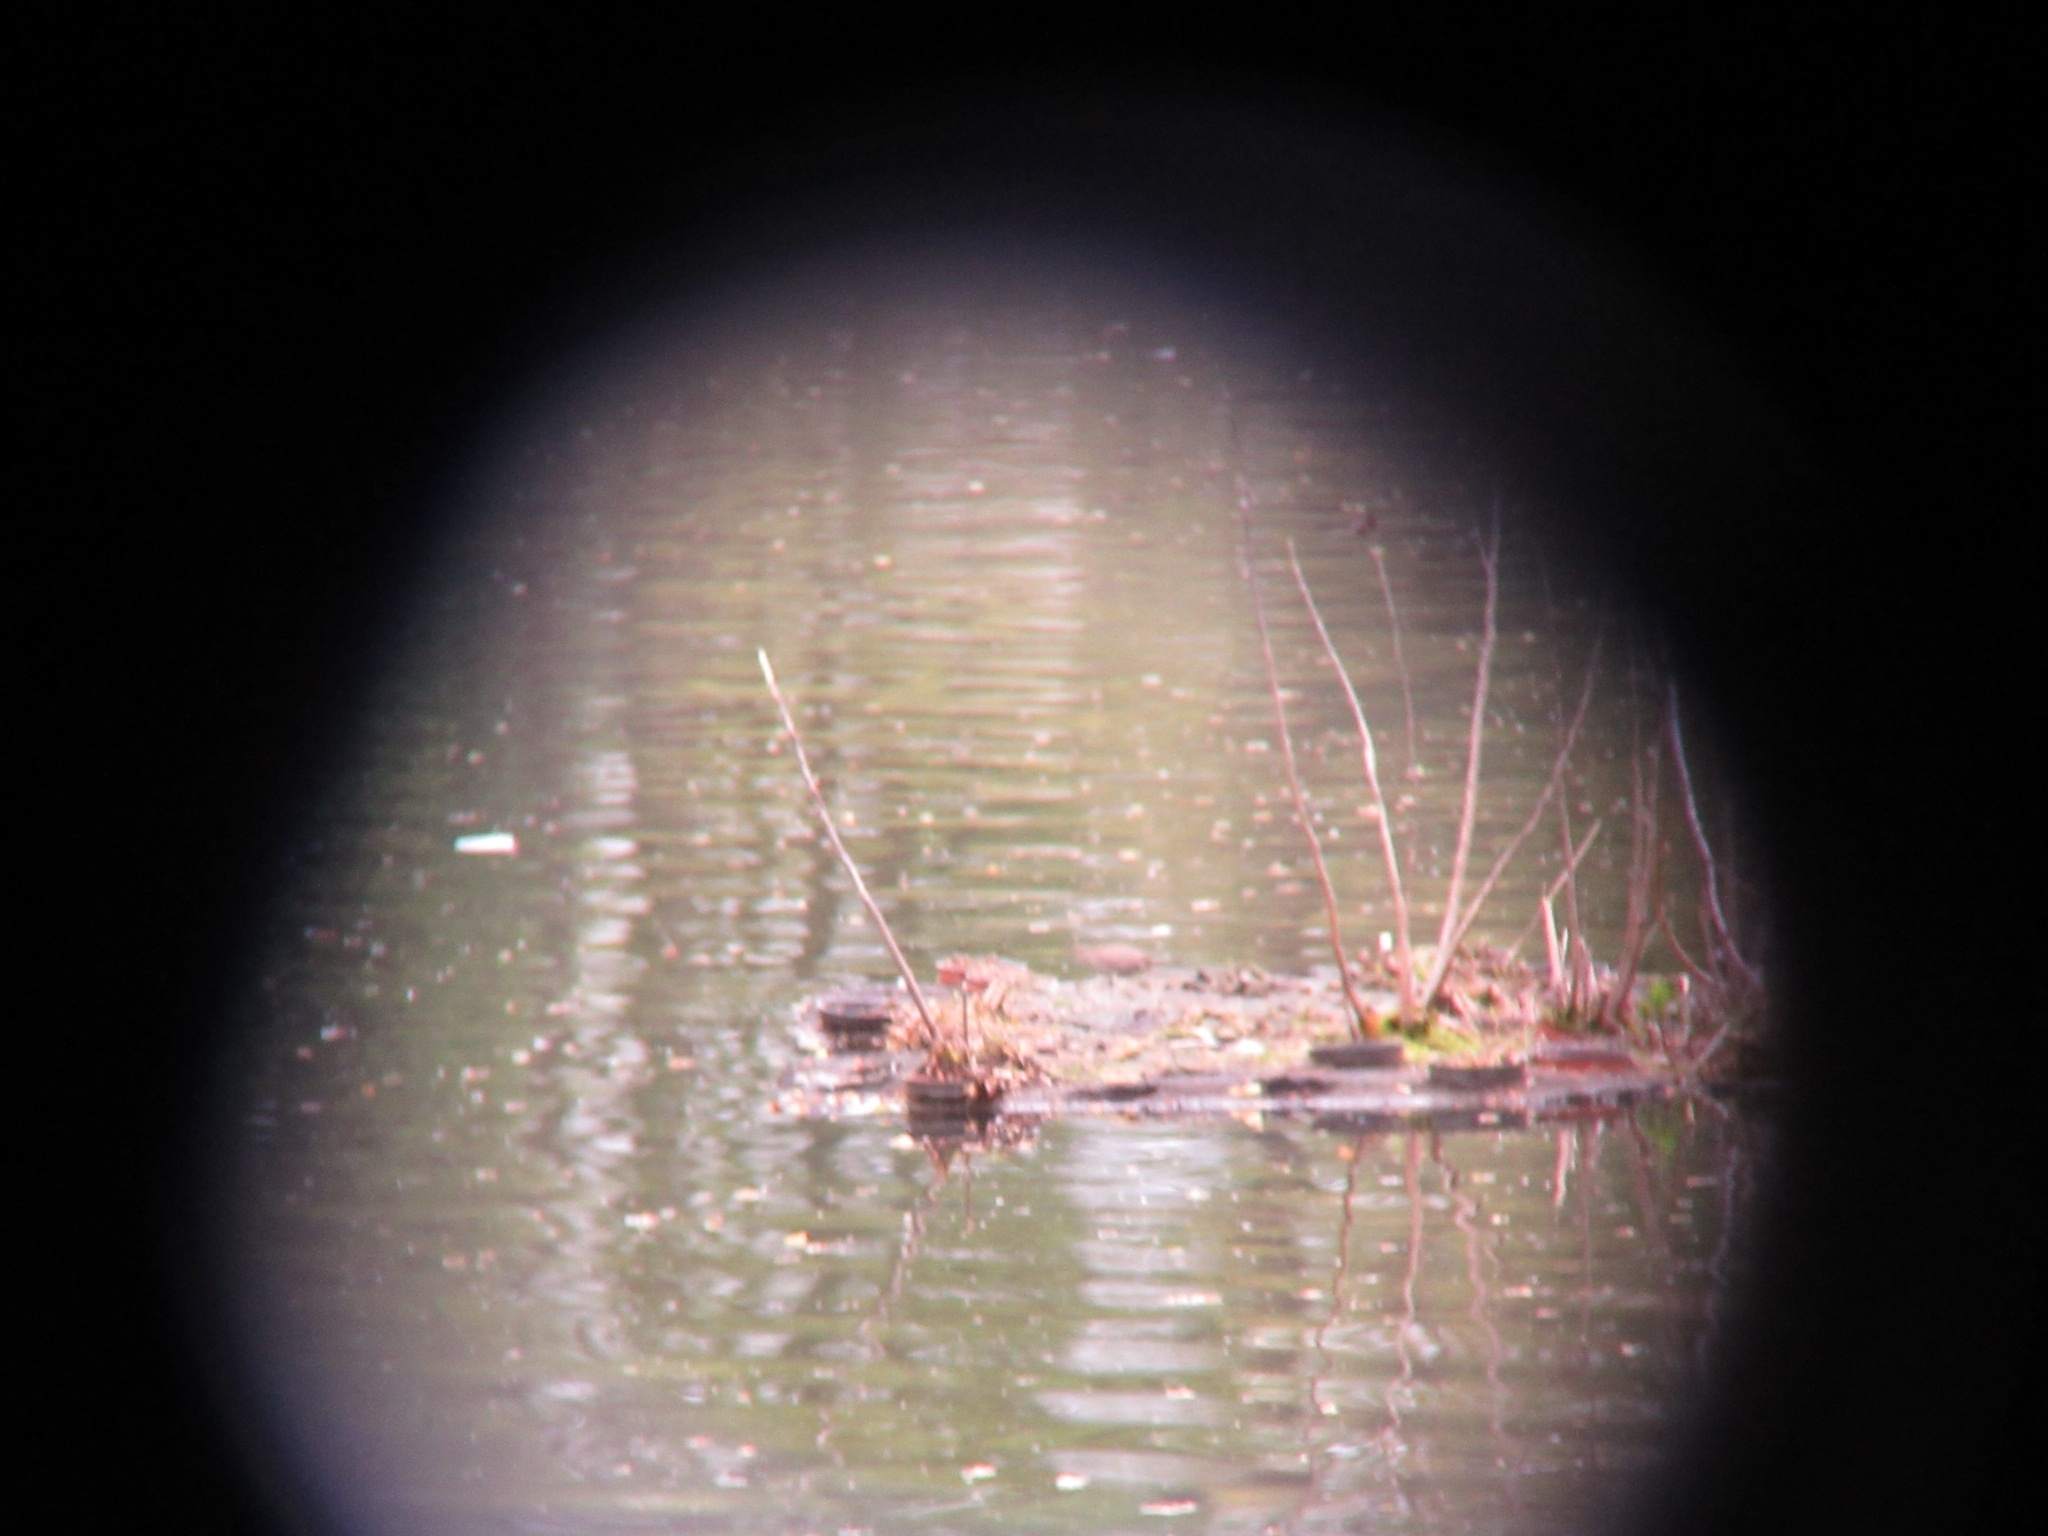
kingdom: Animalia
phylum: Chordata
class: Aves
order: Charadriiformes
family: Scolopacidae
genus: Actitis
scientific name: Actitis macularius
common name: Spotted sandpiper
